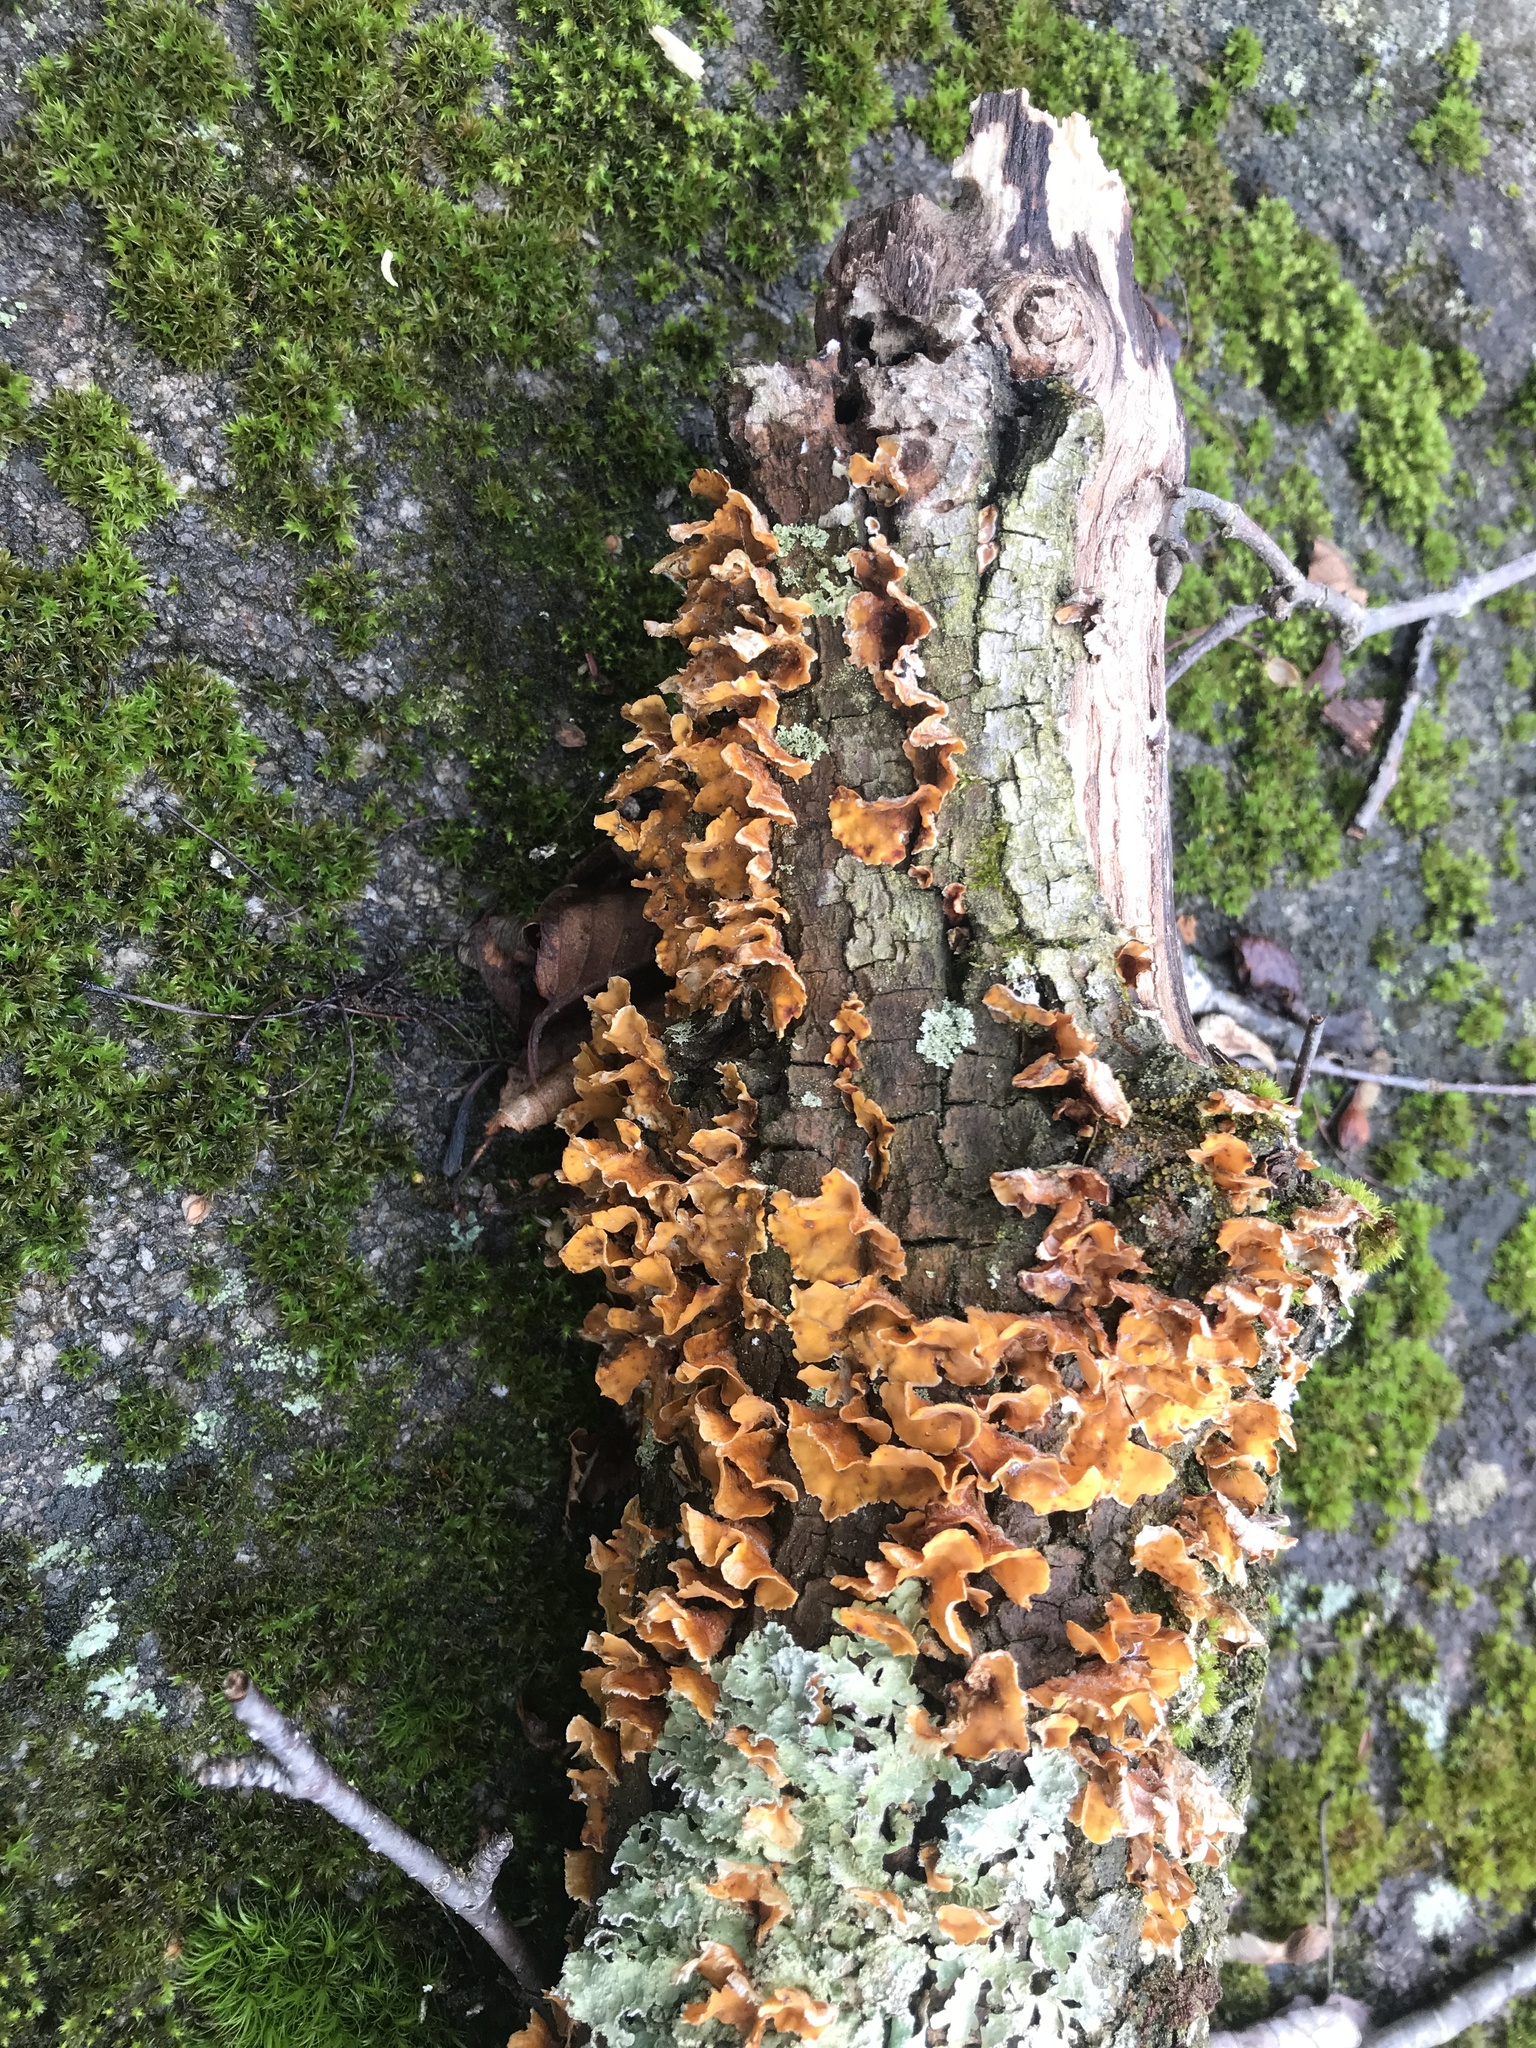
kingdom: Fungi
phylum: Basidiomycota
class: Agaricomycetes
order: Russulales
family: Stereaceae
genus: Stereum
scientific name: Stereum complicatum
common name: Crowded parchment
